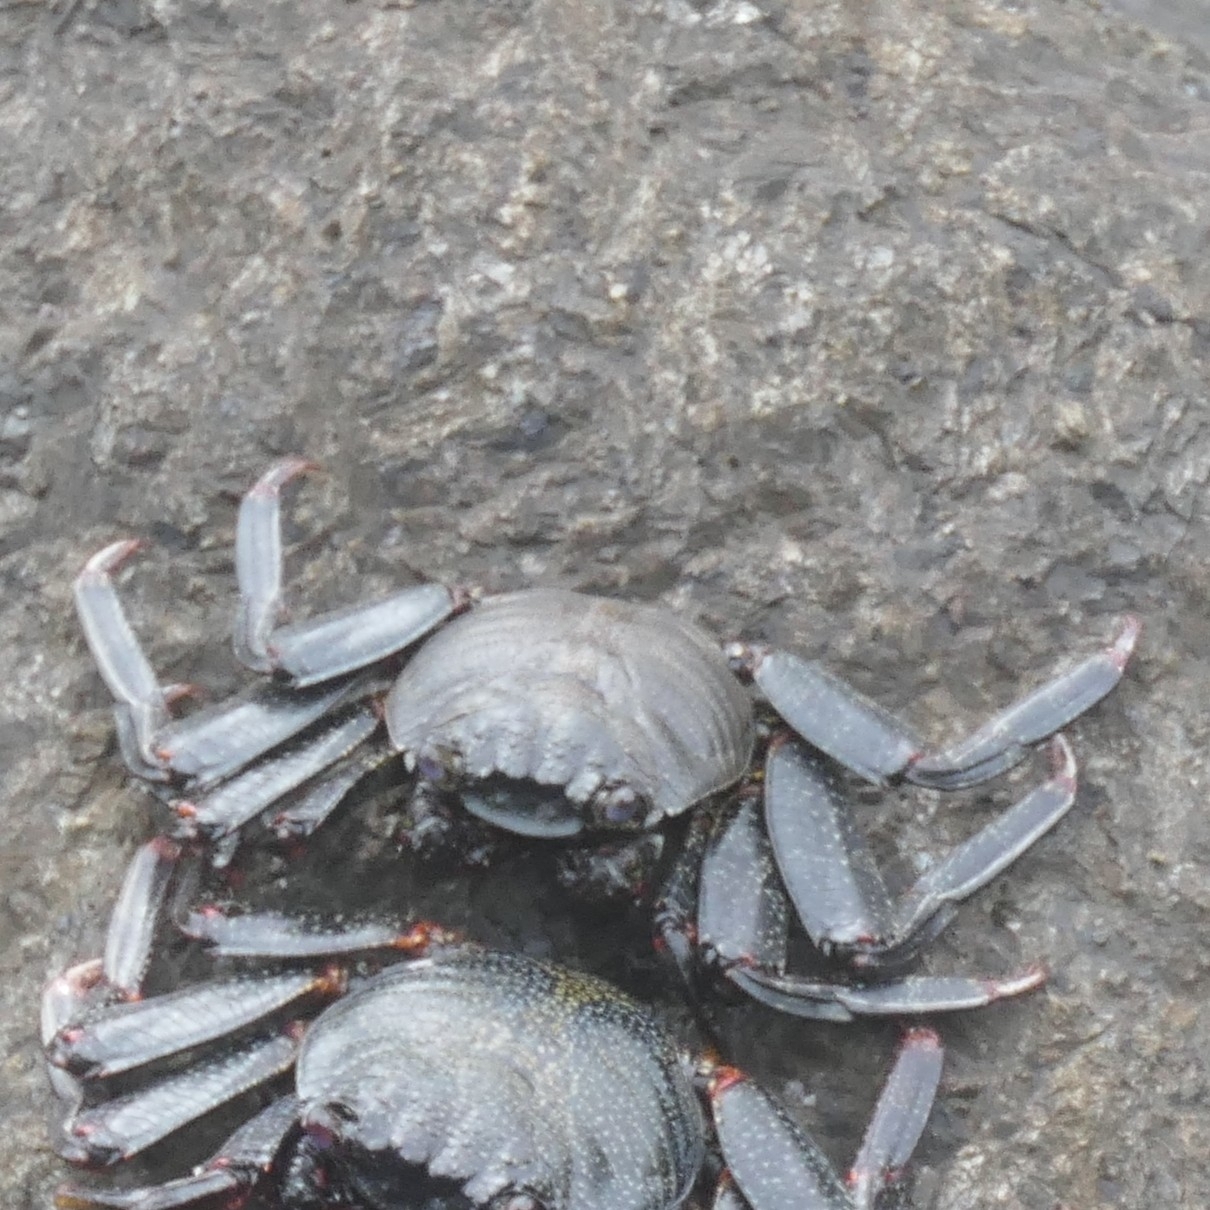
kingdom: Animalia
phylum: Arthropoda
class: Malacostraca
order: Decapoda
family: Grapsidae
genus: Grapsus
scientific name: Grapsus adscensionis
